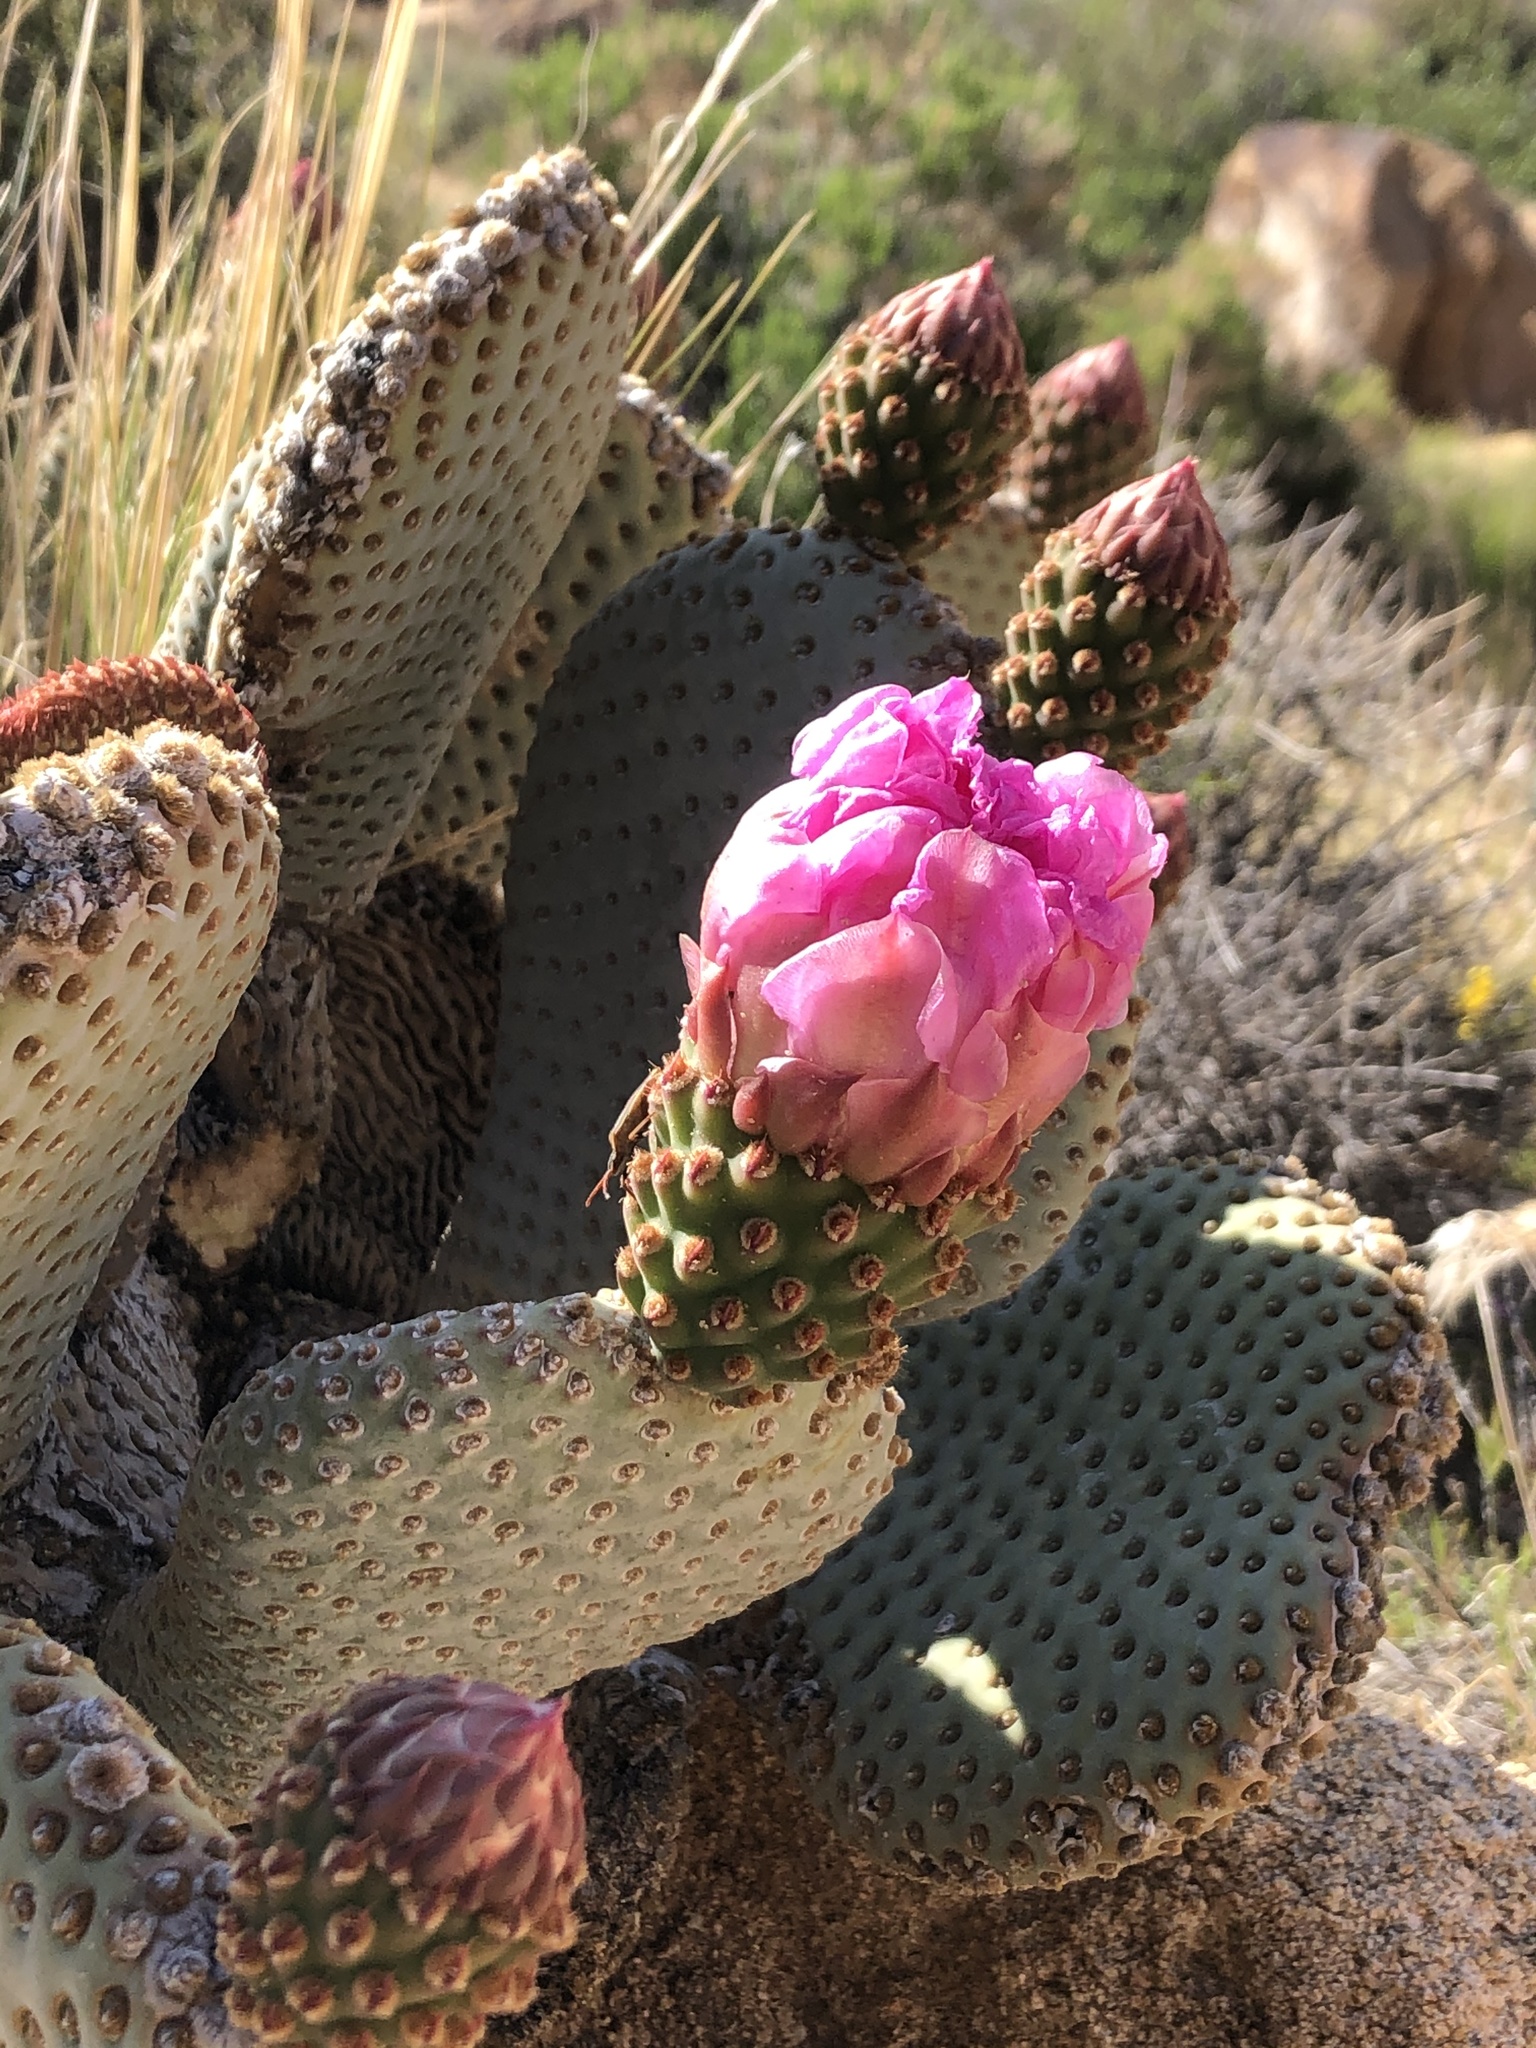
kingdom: Plantae
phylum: Tracheophyta
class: Magnoliopsida
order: Caryophyllales
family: Cactaceae
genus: Opuntia
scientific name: Opuntia basilaris
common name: Beavertail prickly-pear
